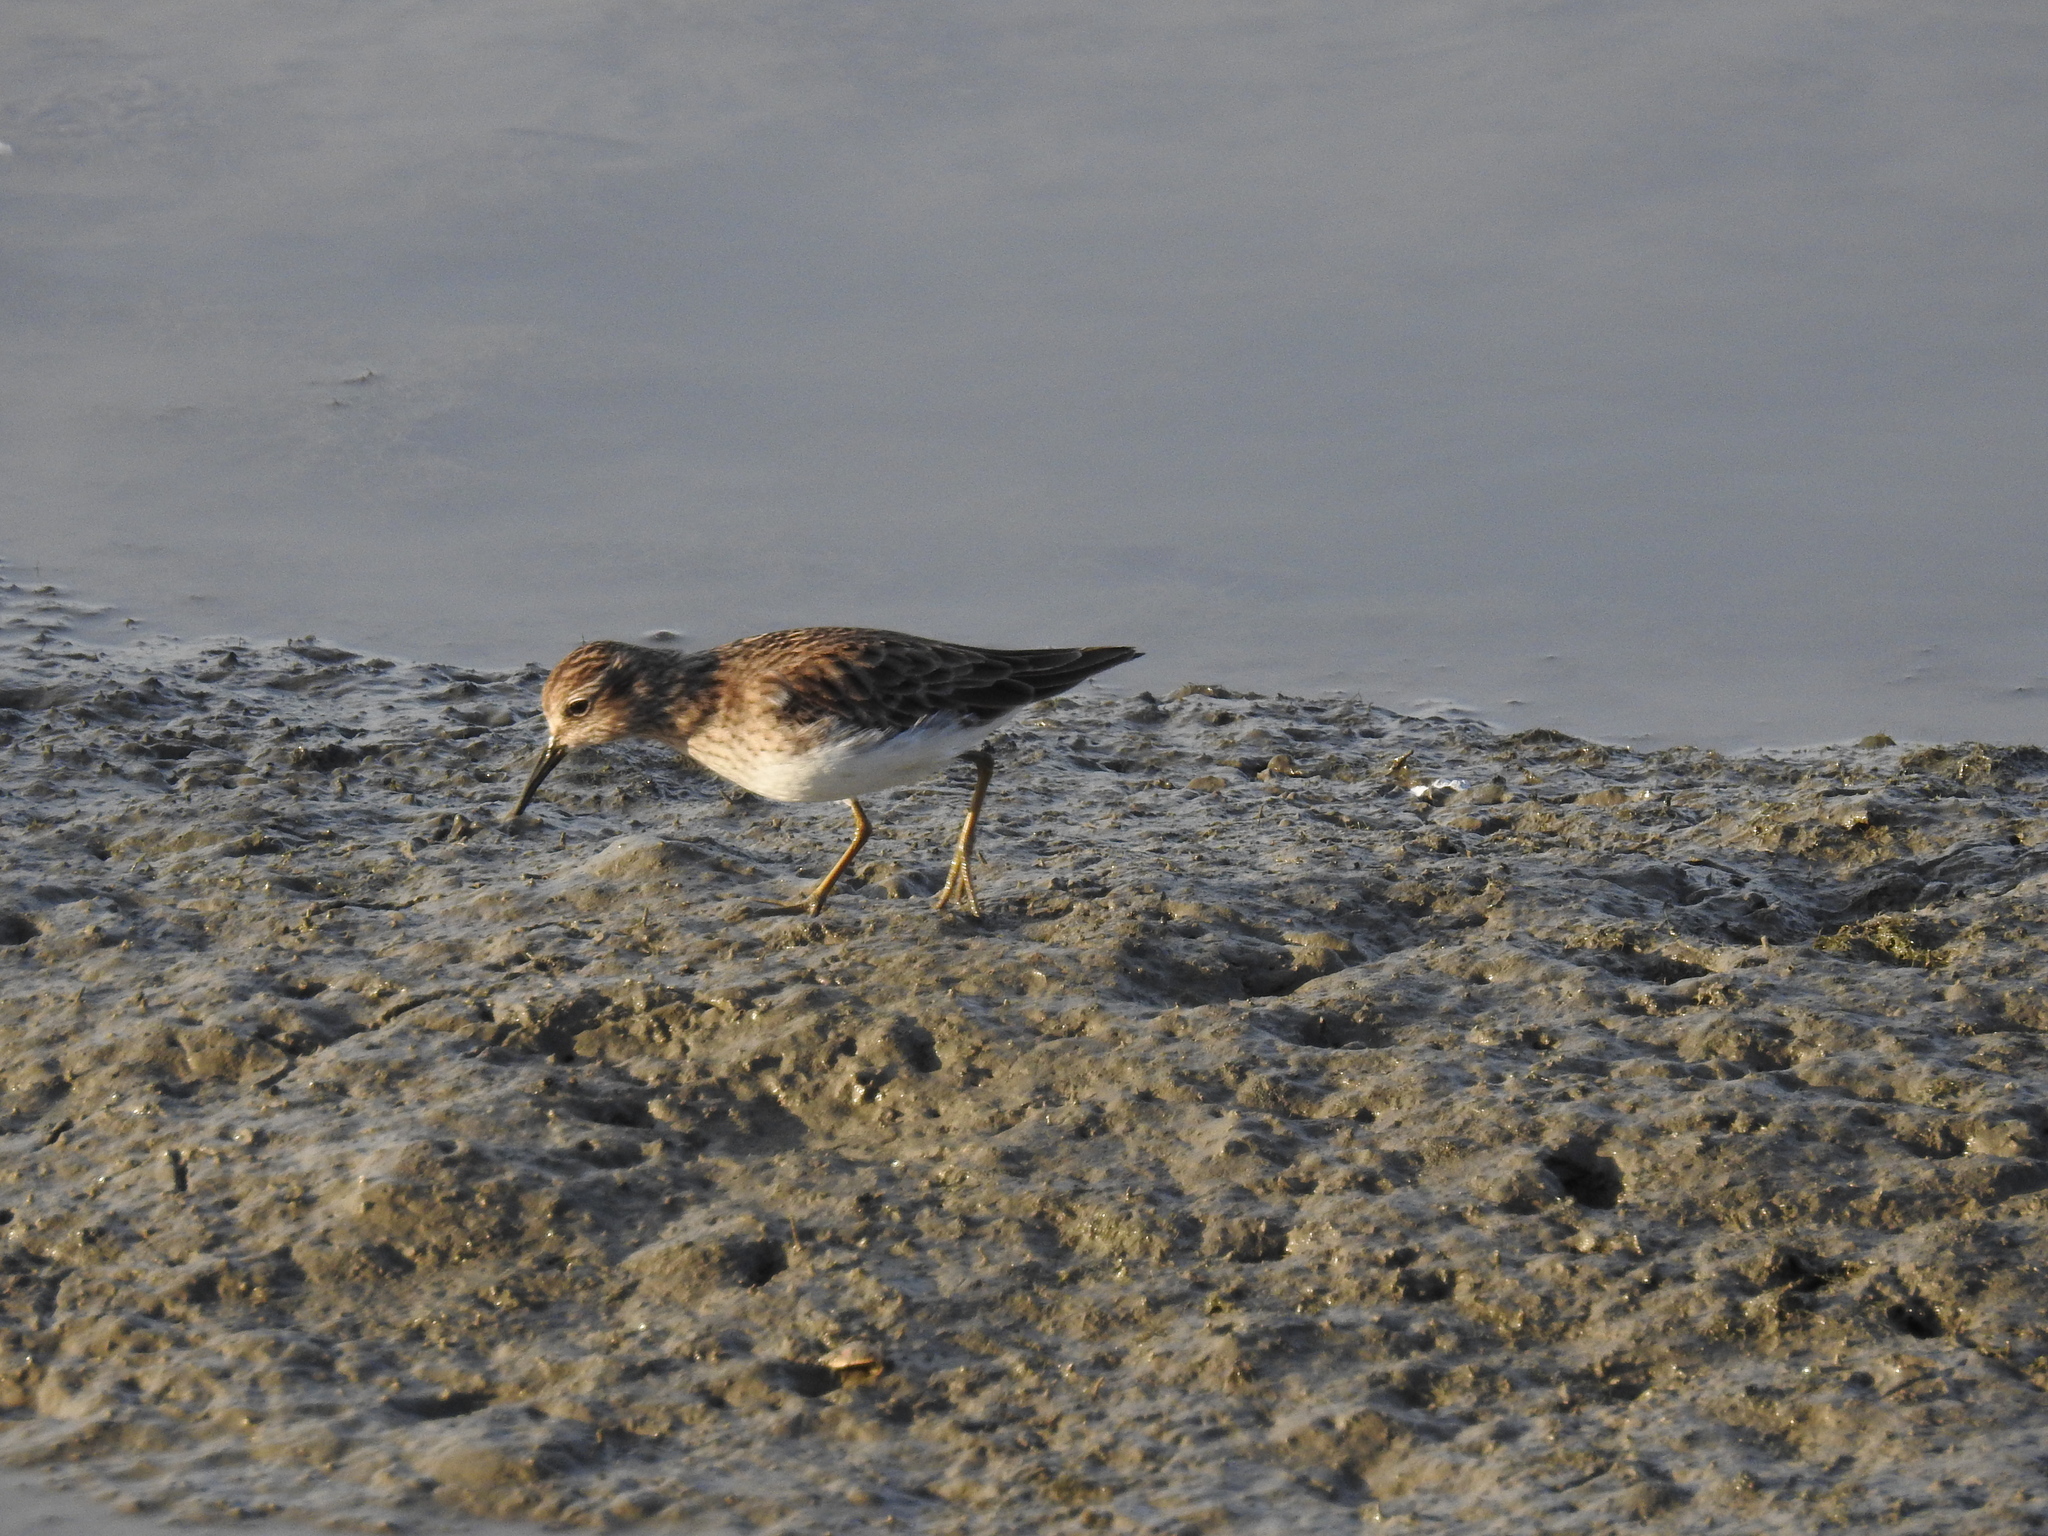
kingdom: Animalia
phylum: Chordata
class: Aves
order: Charadriiformes
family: Scolopacidae
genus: Calidris
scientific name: Calidris minutilla
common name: Least sandpiper
